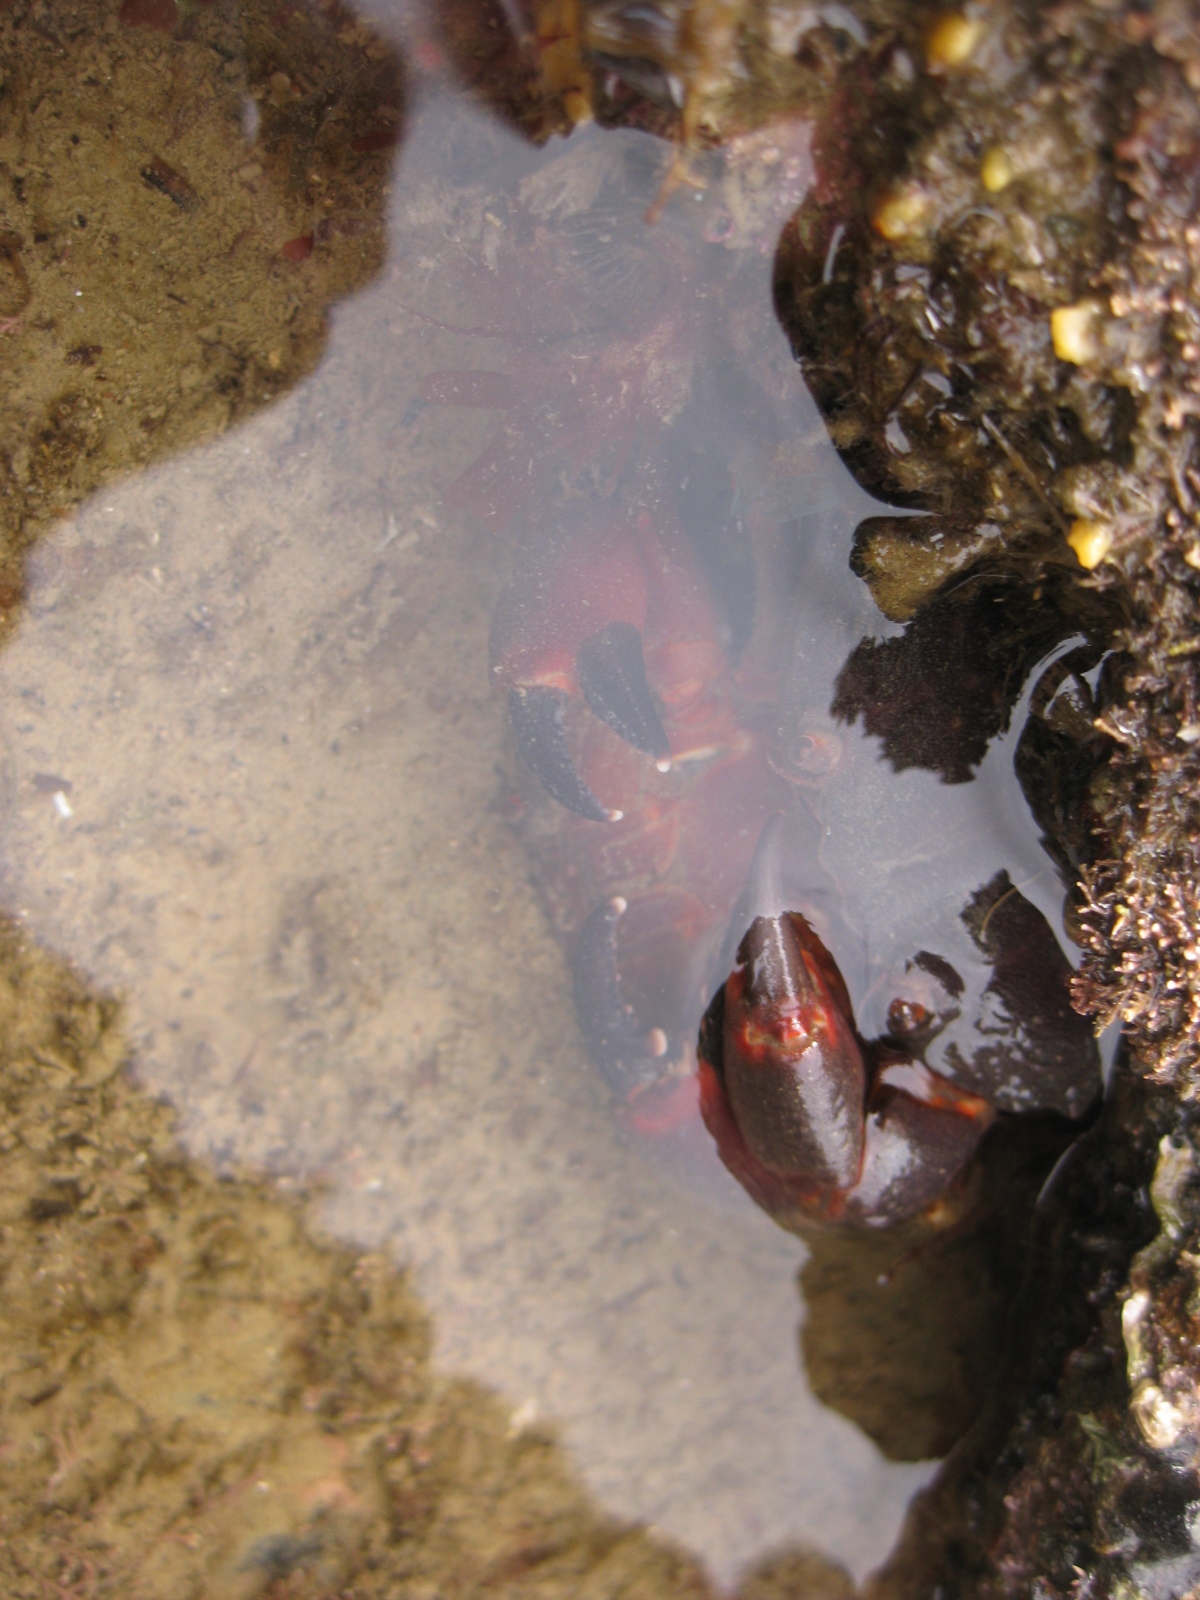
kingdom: Animalia
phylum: Arthropoda
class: Malacostraca
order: Decapoda
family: Oziidae
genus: Ozius
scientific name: Ozius deplanatus
